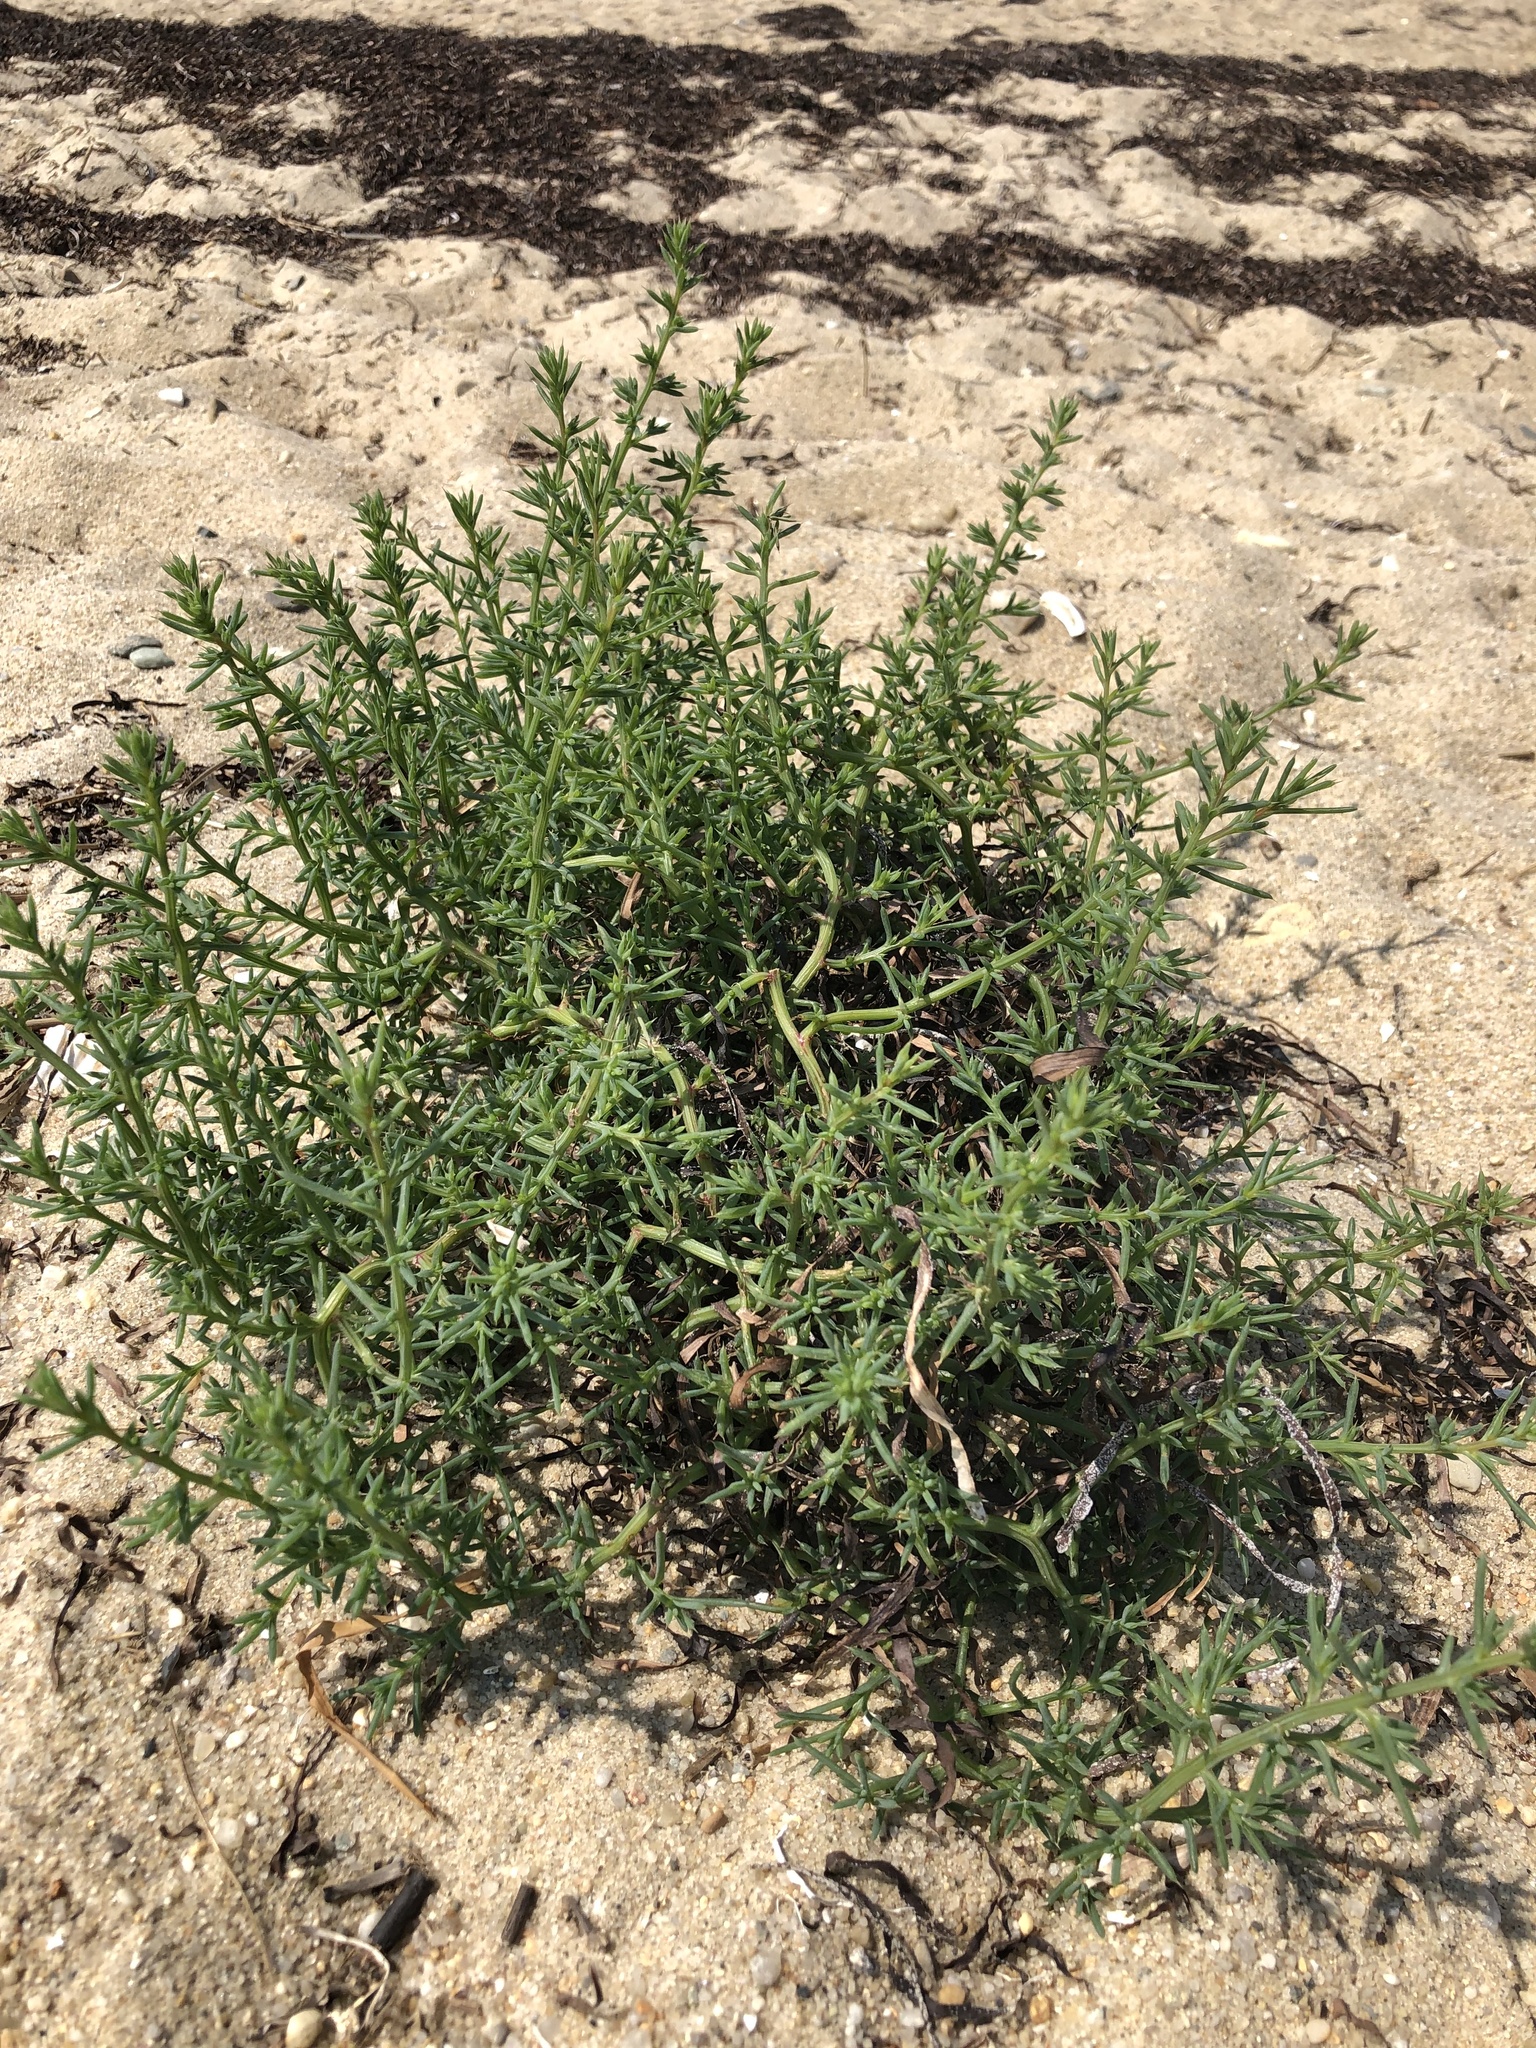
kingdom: Plantae
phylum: Tracheophyta
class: Magnoliopsida
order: Caryophyllales
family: Amaranthaceae
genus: Salsola
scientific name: Salsola kali
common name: Saltwort
